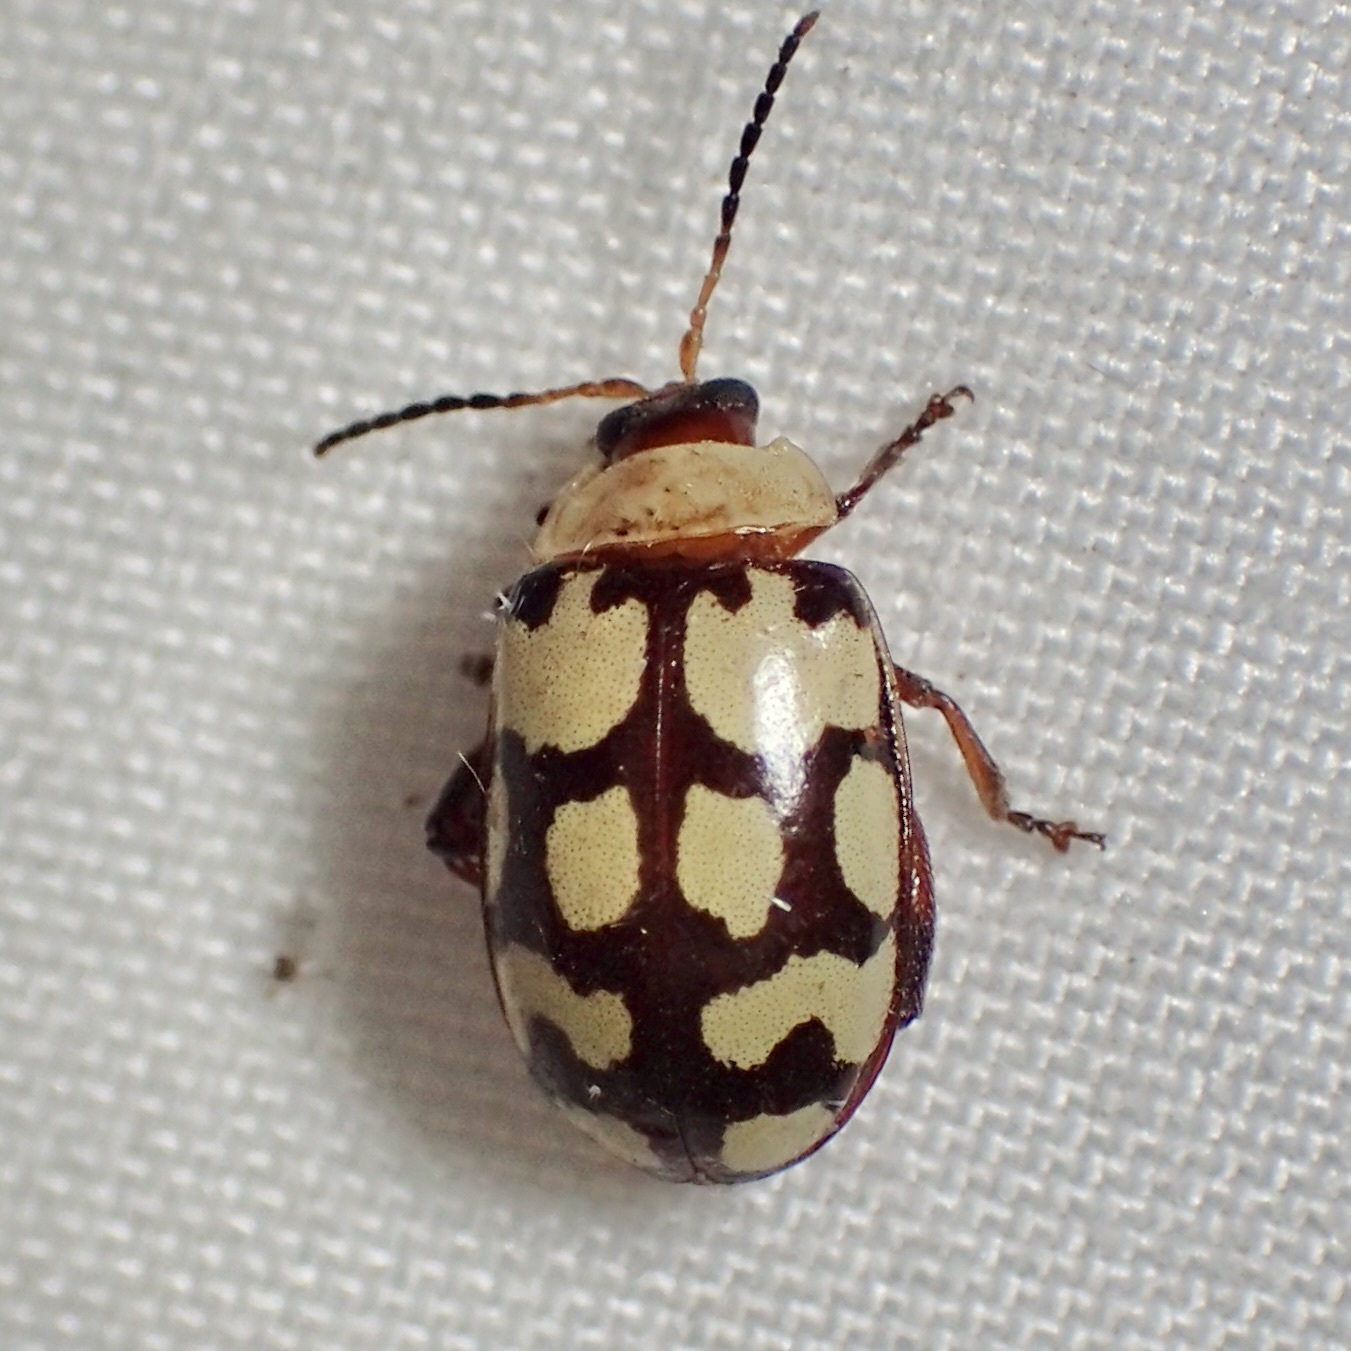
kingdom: Animalia
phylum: Arthropoda
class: Insecta
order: Coleoptera
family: Chrysomelidae
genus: Alagoasa
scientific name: Alagoasa
